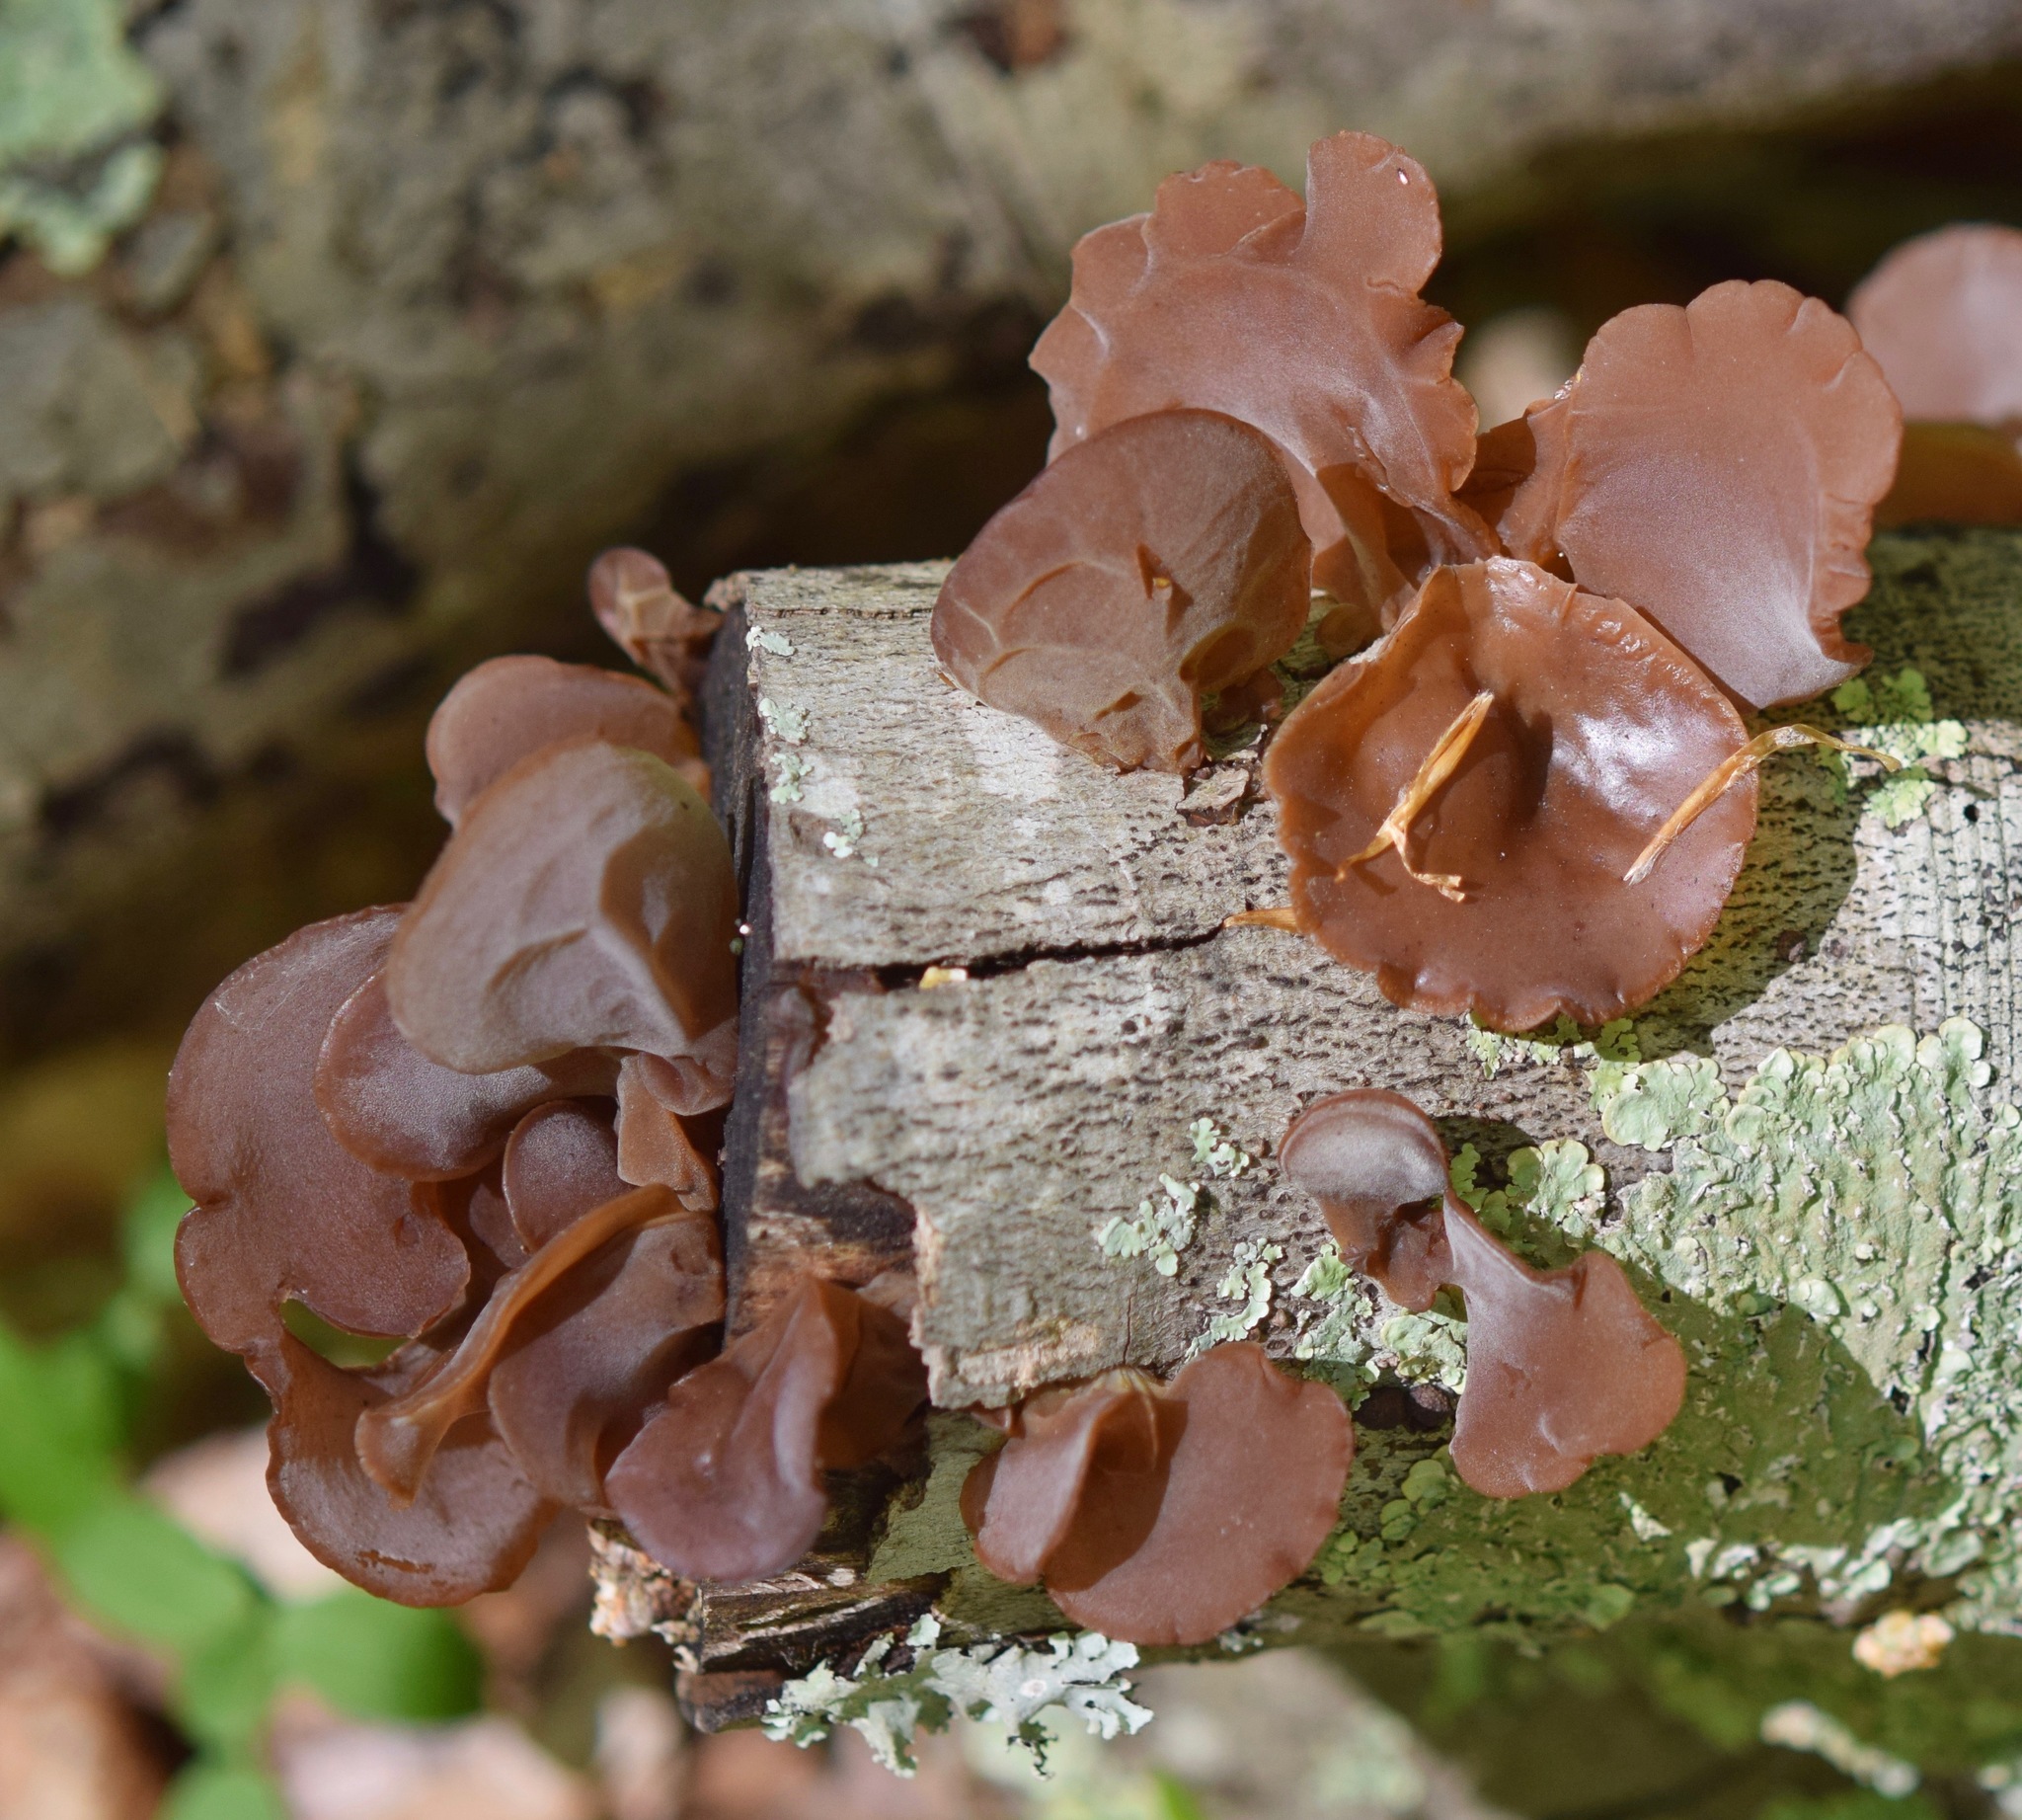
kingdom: Fungi
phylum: Basidiomycota
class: Agaricomycetes
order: Auriculariales
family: Auriculariaceae
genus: Auricularia
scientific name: Auricularia
